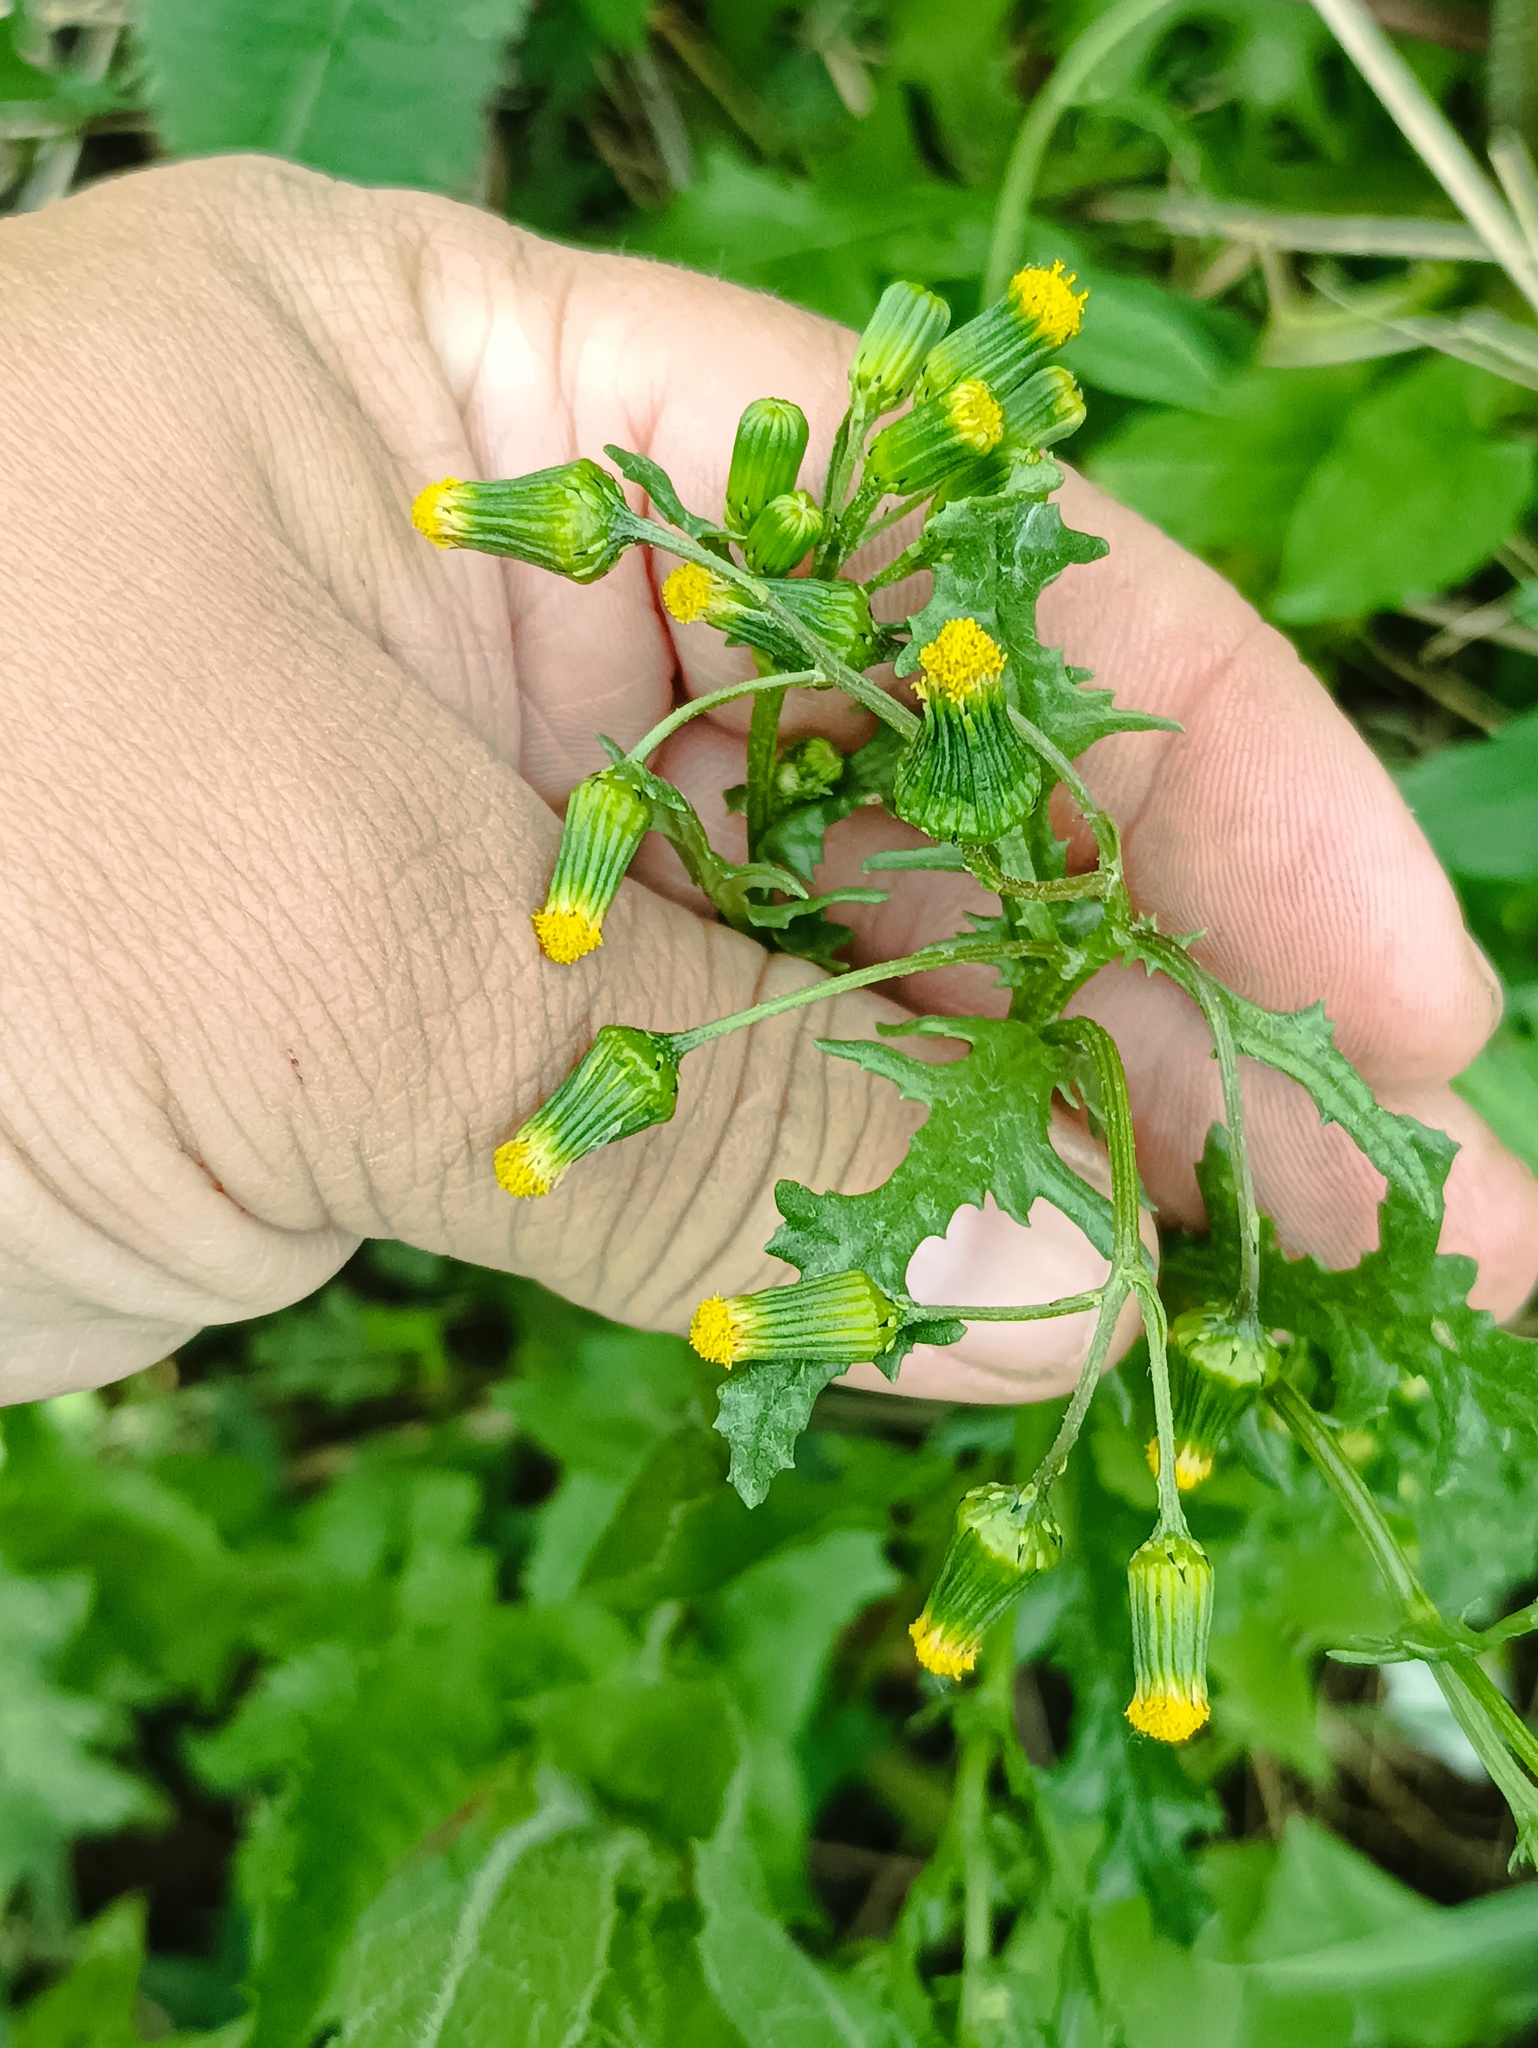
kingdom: Plantae
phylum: Tracheophyta
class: Magnoliopsida
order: Asterales
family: Asteraceae
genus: Senecio
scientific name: Senecio vulgaris
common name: Old-man-in-the-spring
